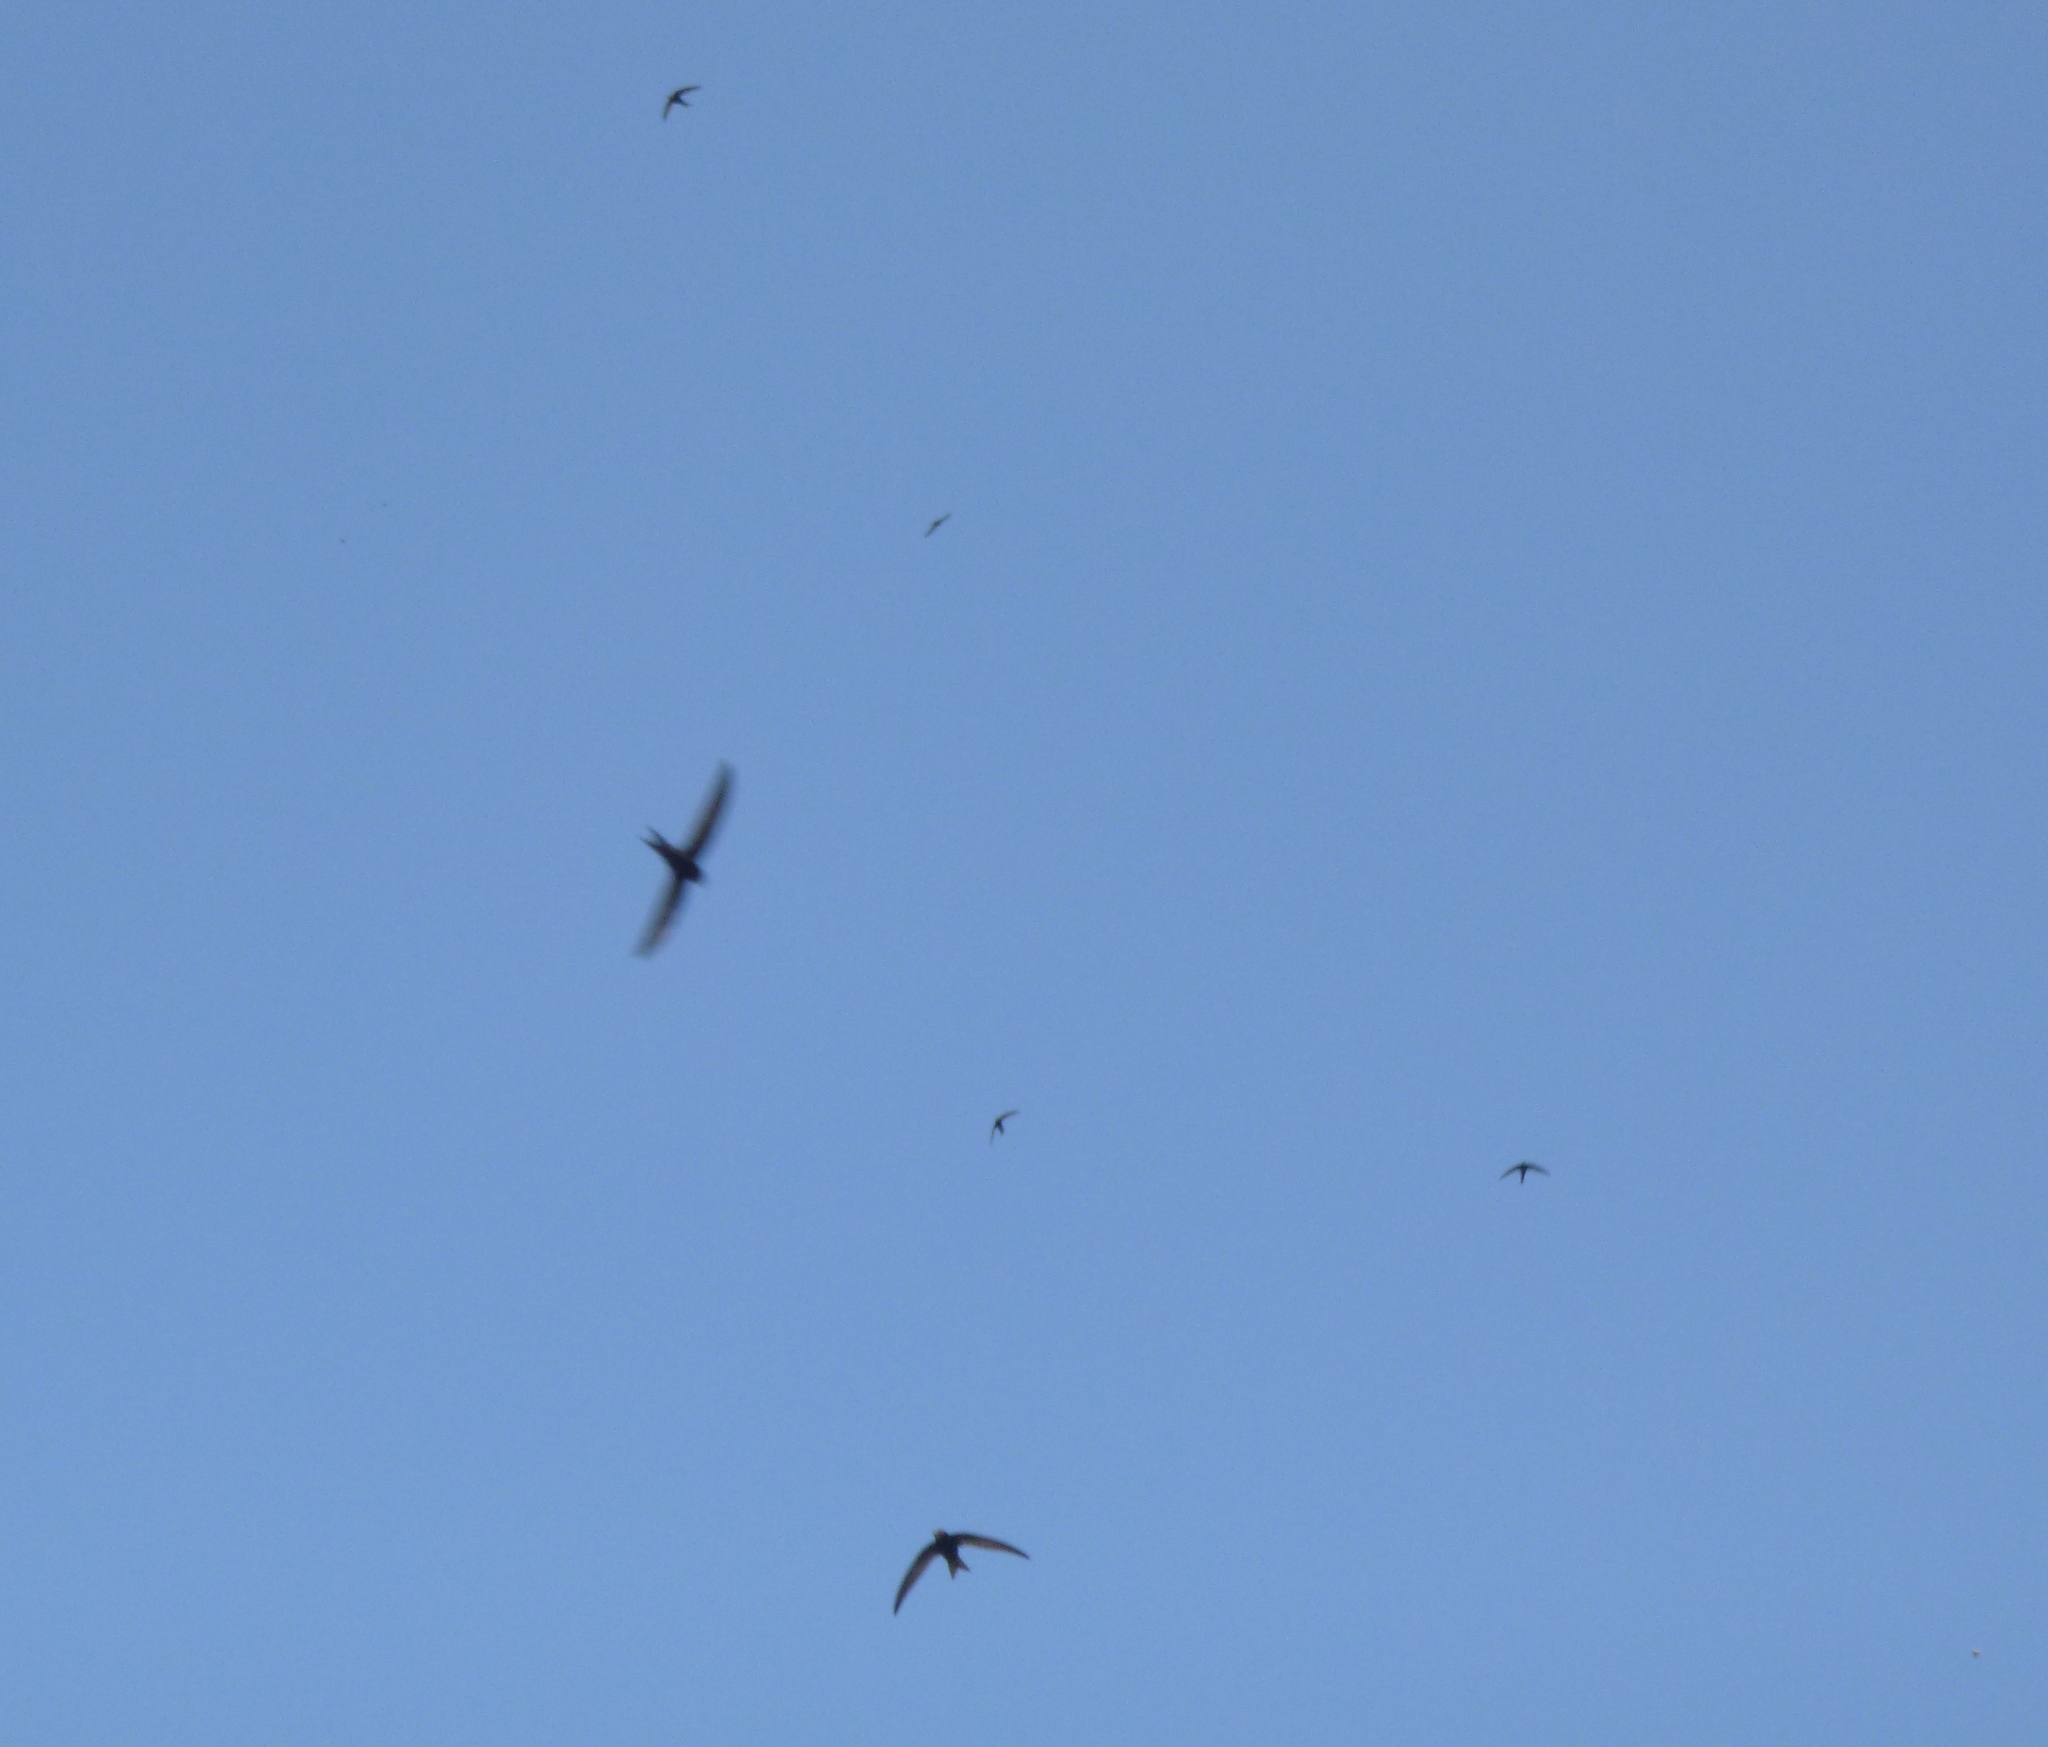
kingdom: Animalia
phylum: Chordata
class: Aves
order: Apodiformes
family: Apodidae
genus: Apus
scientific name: Apus apus
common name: Common swift
